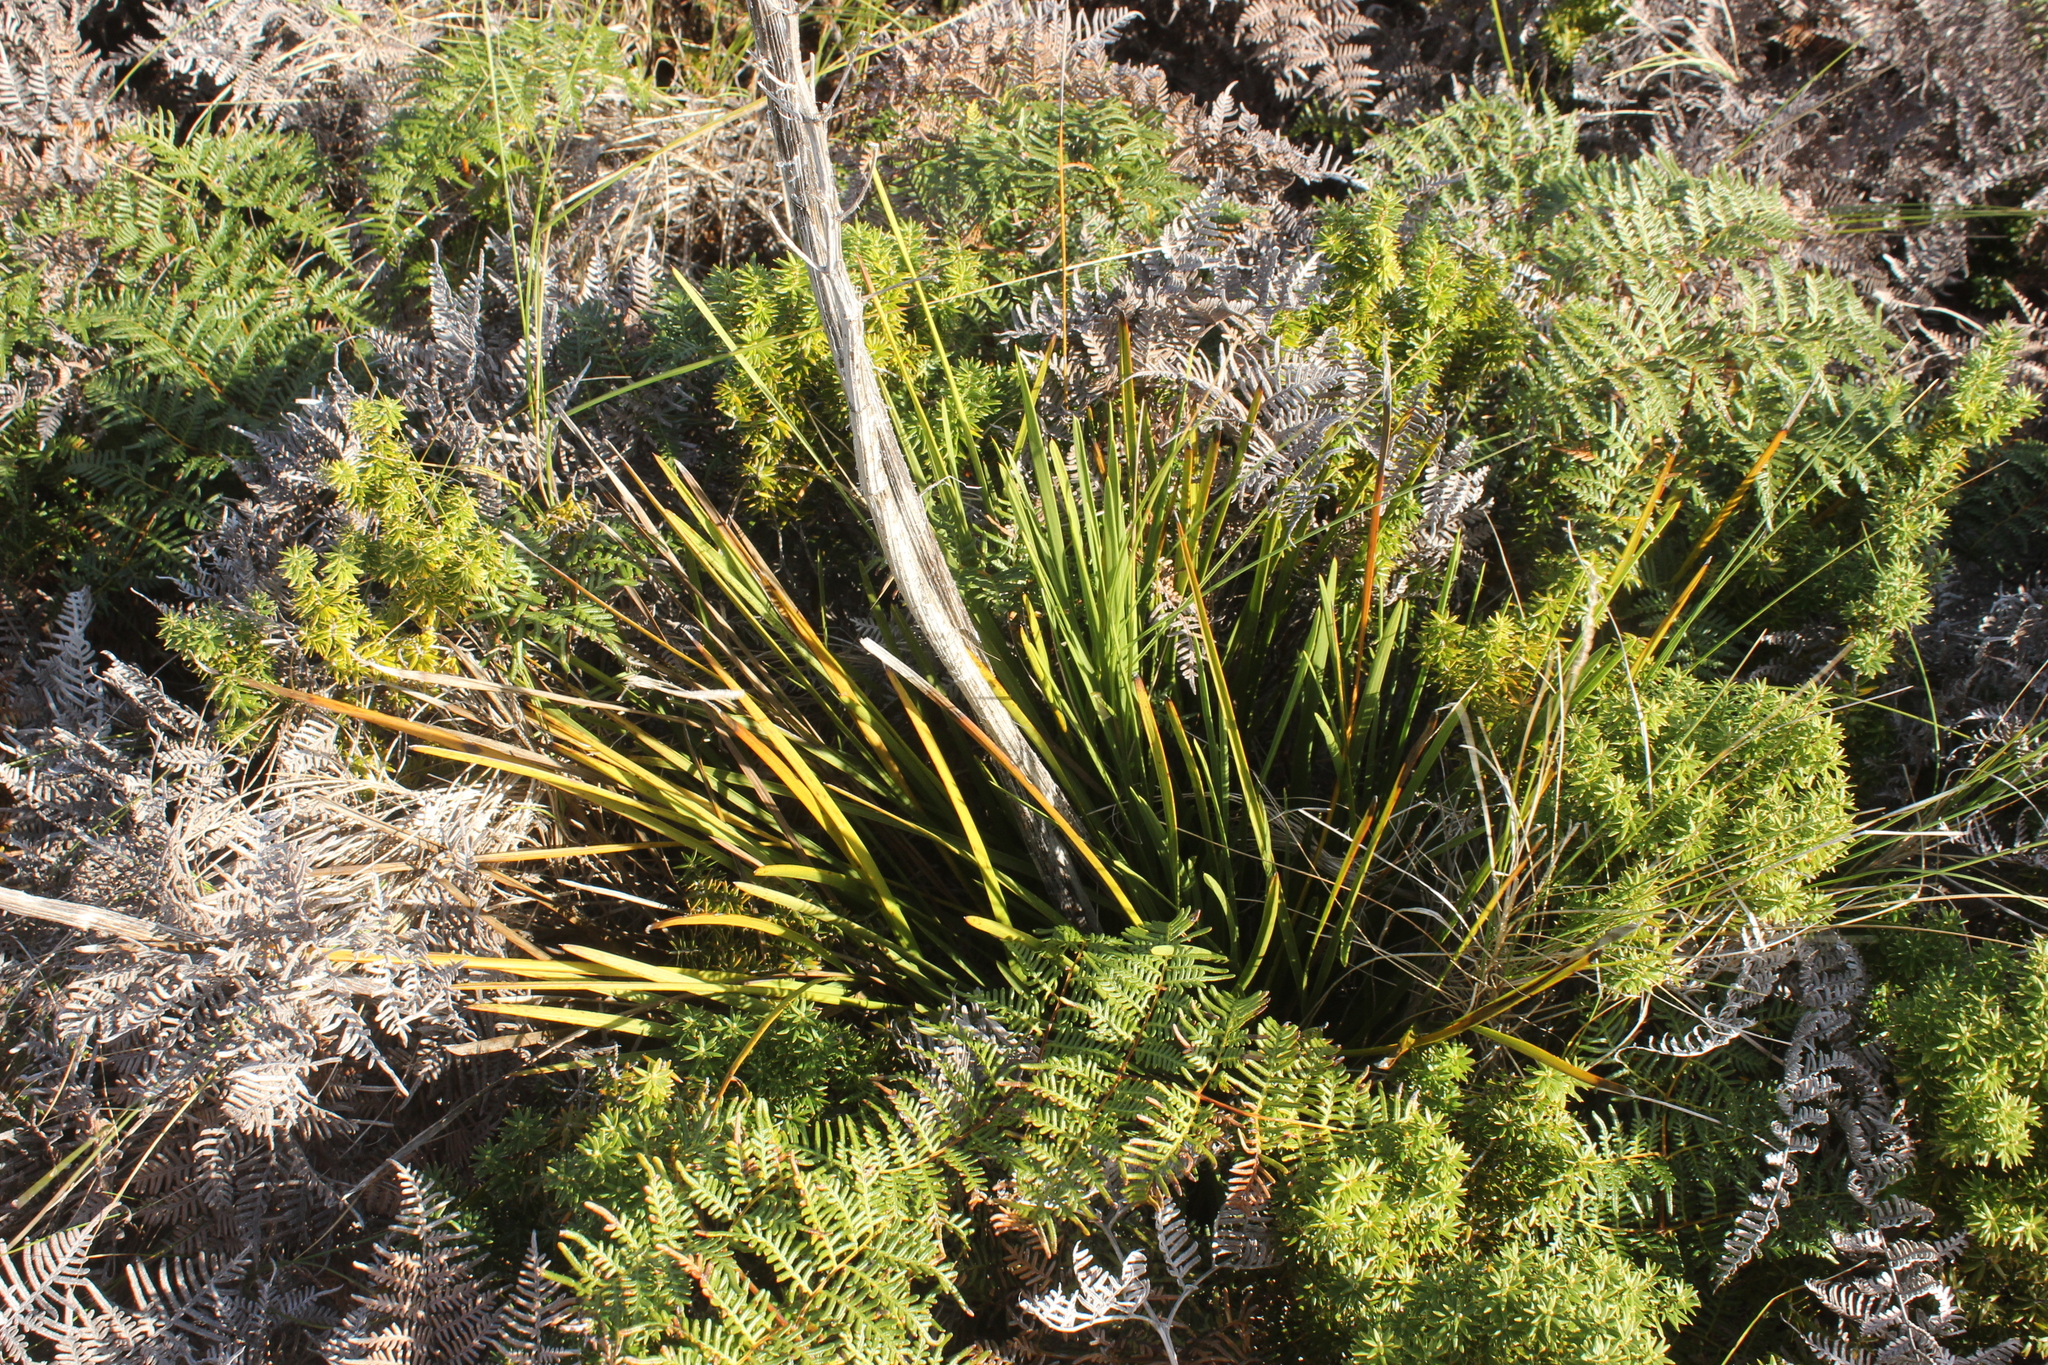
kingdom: Plantae
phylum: Tracheophyta
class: Magnoliopsida
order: Apiales
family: Apiaceae
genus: Aciphylla
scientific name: Aciphylla traversii
